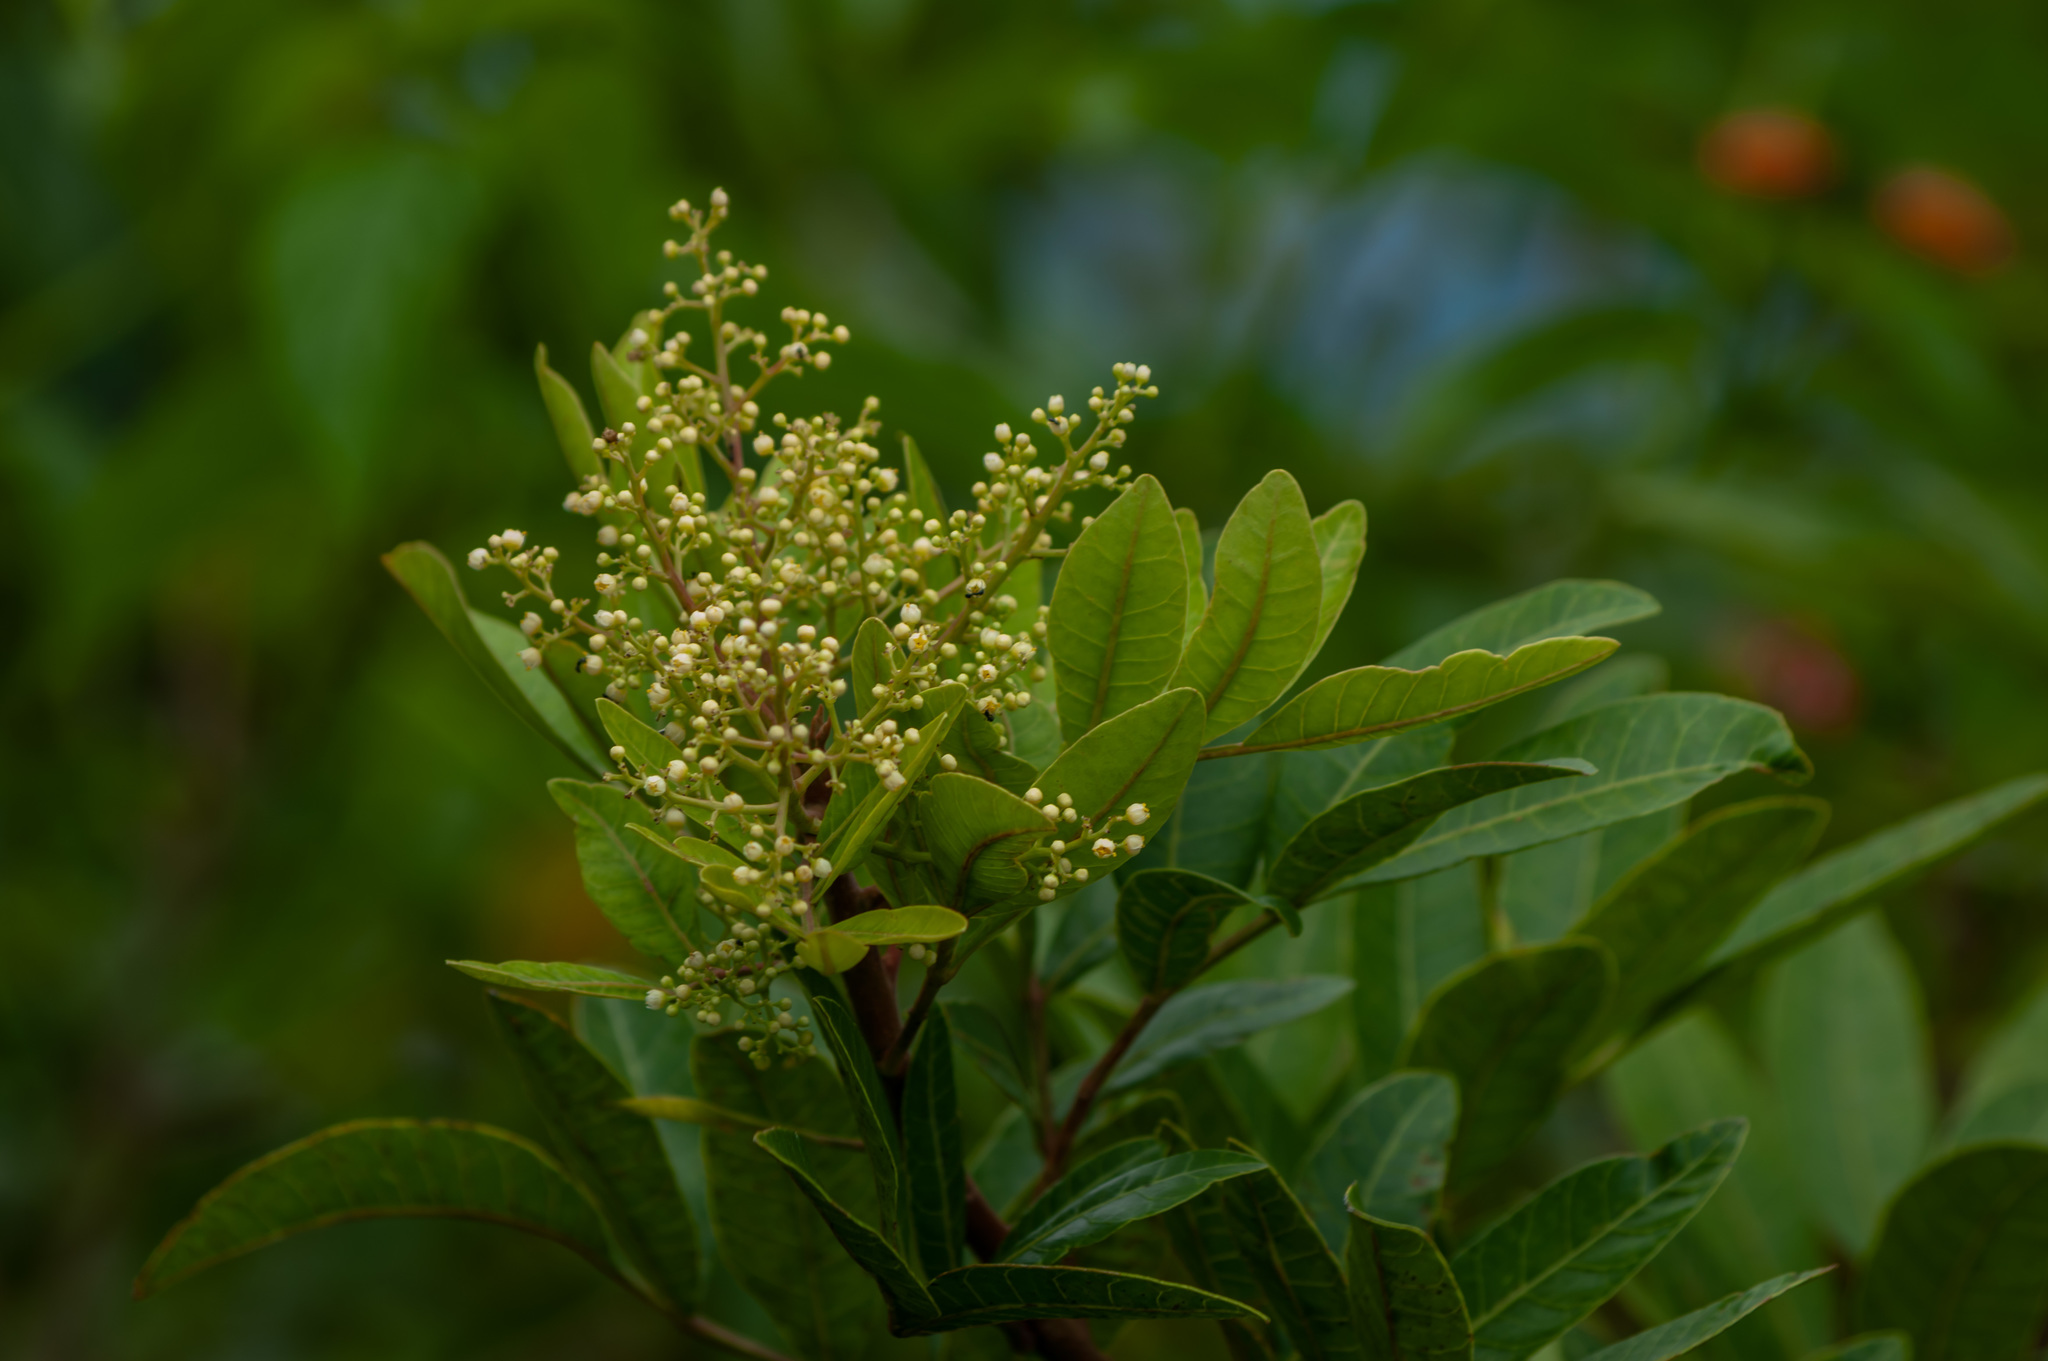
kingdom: Plantae
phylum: Tracheophyta
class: Magnoliopsida
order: Sapindales
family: Anacardiaceae
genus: Schinus
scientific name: Schinus terebinthifolia
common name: Brazilian peppertree
